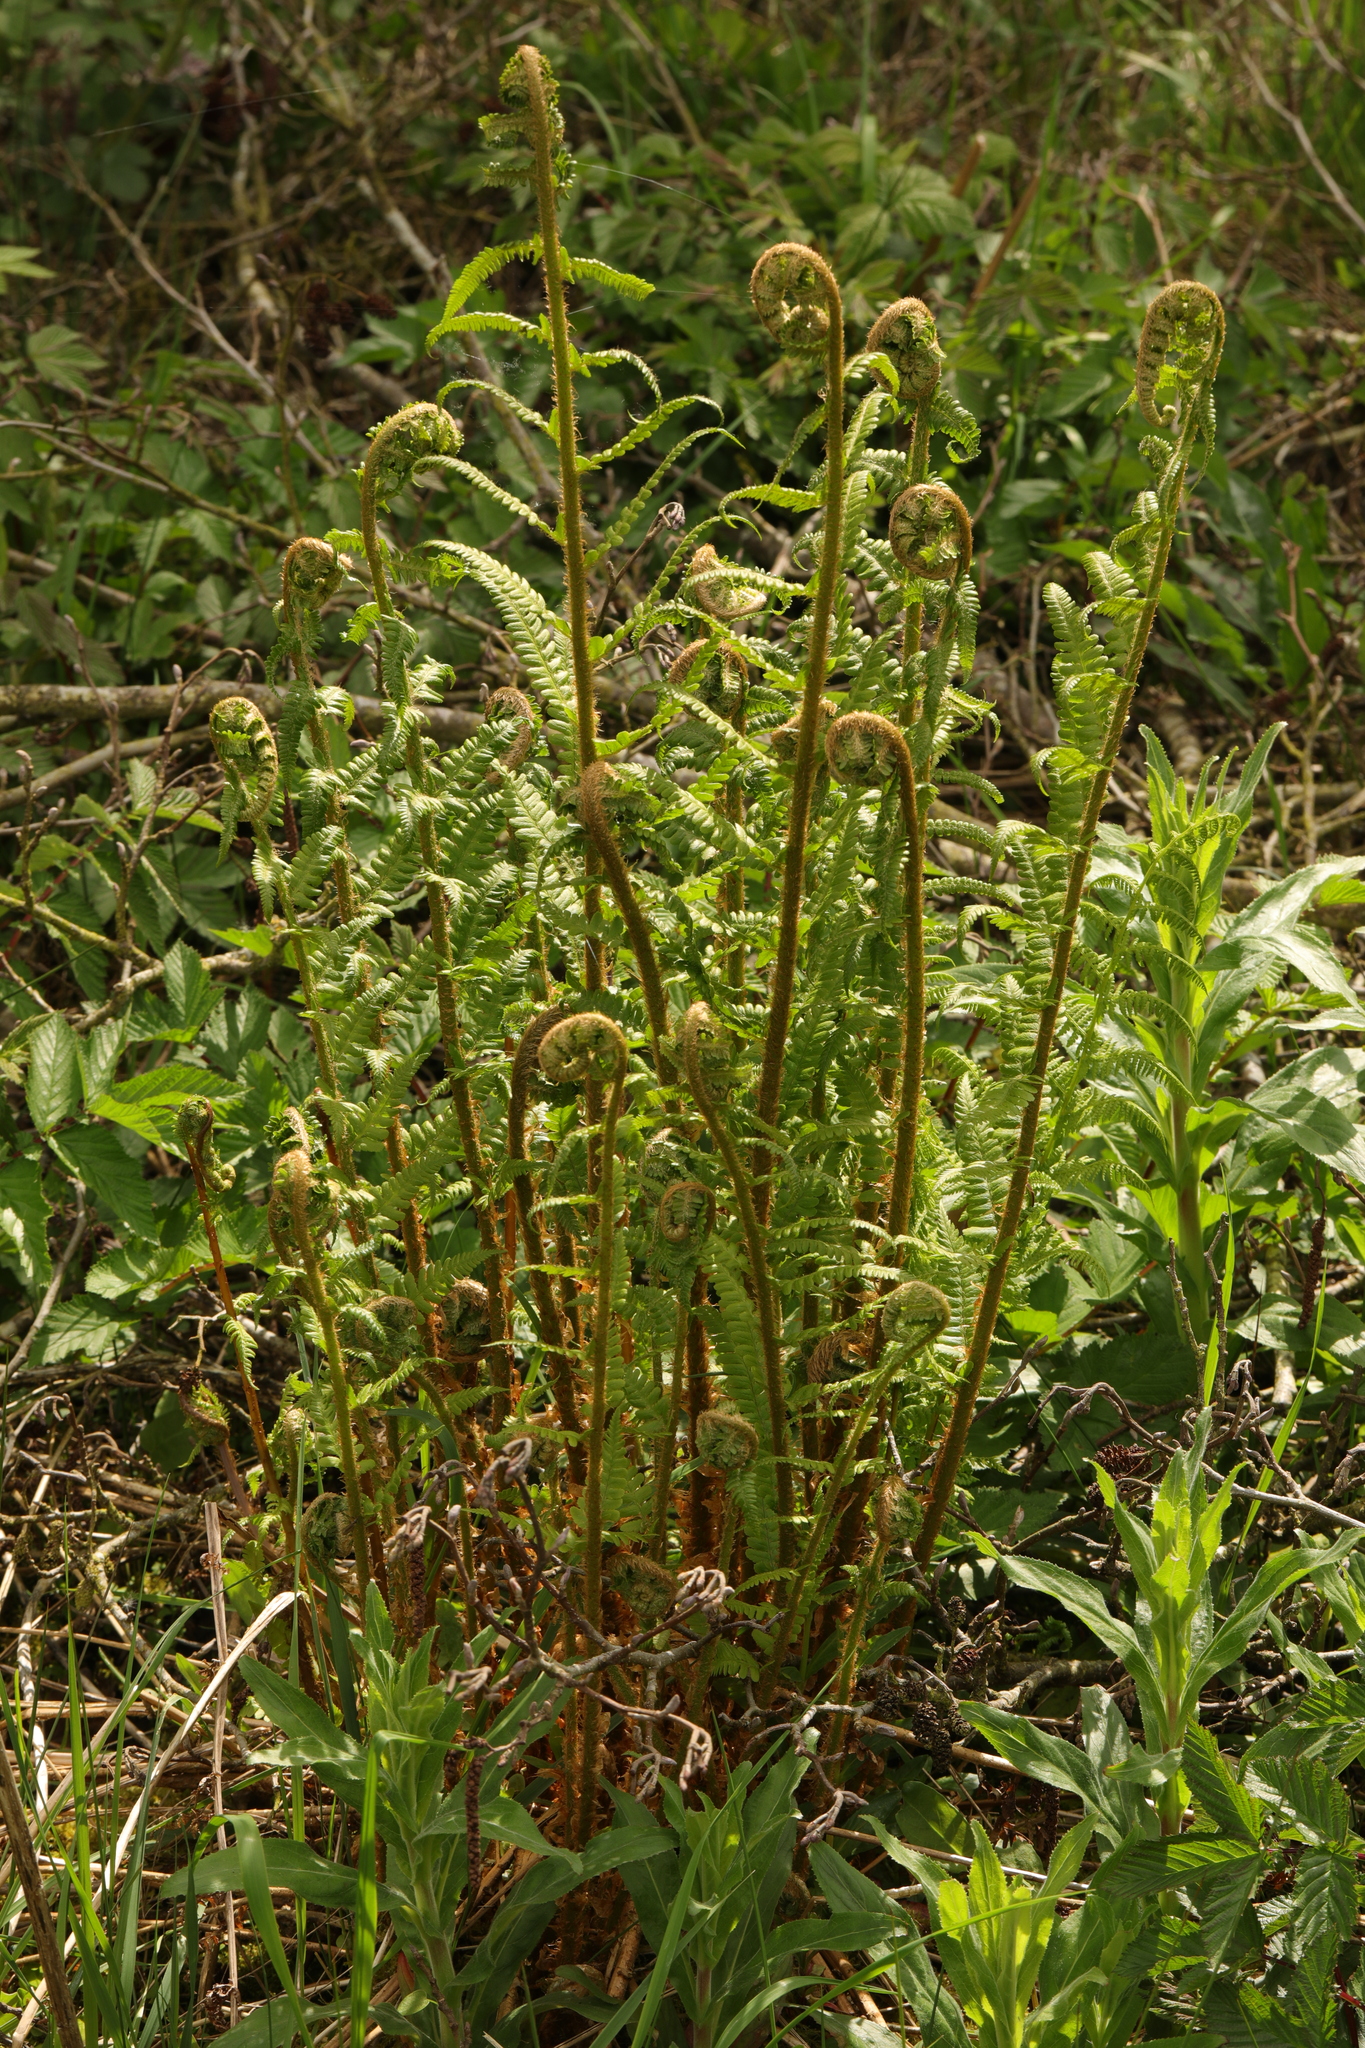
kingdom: Plantae
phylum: Tracheophyta
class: Polypodiopsida
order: Polypodiales
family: Dryopteridaceae
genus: Dryopteris
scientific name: Dryopteris filix-mas
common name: Male fern
